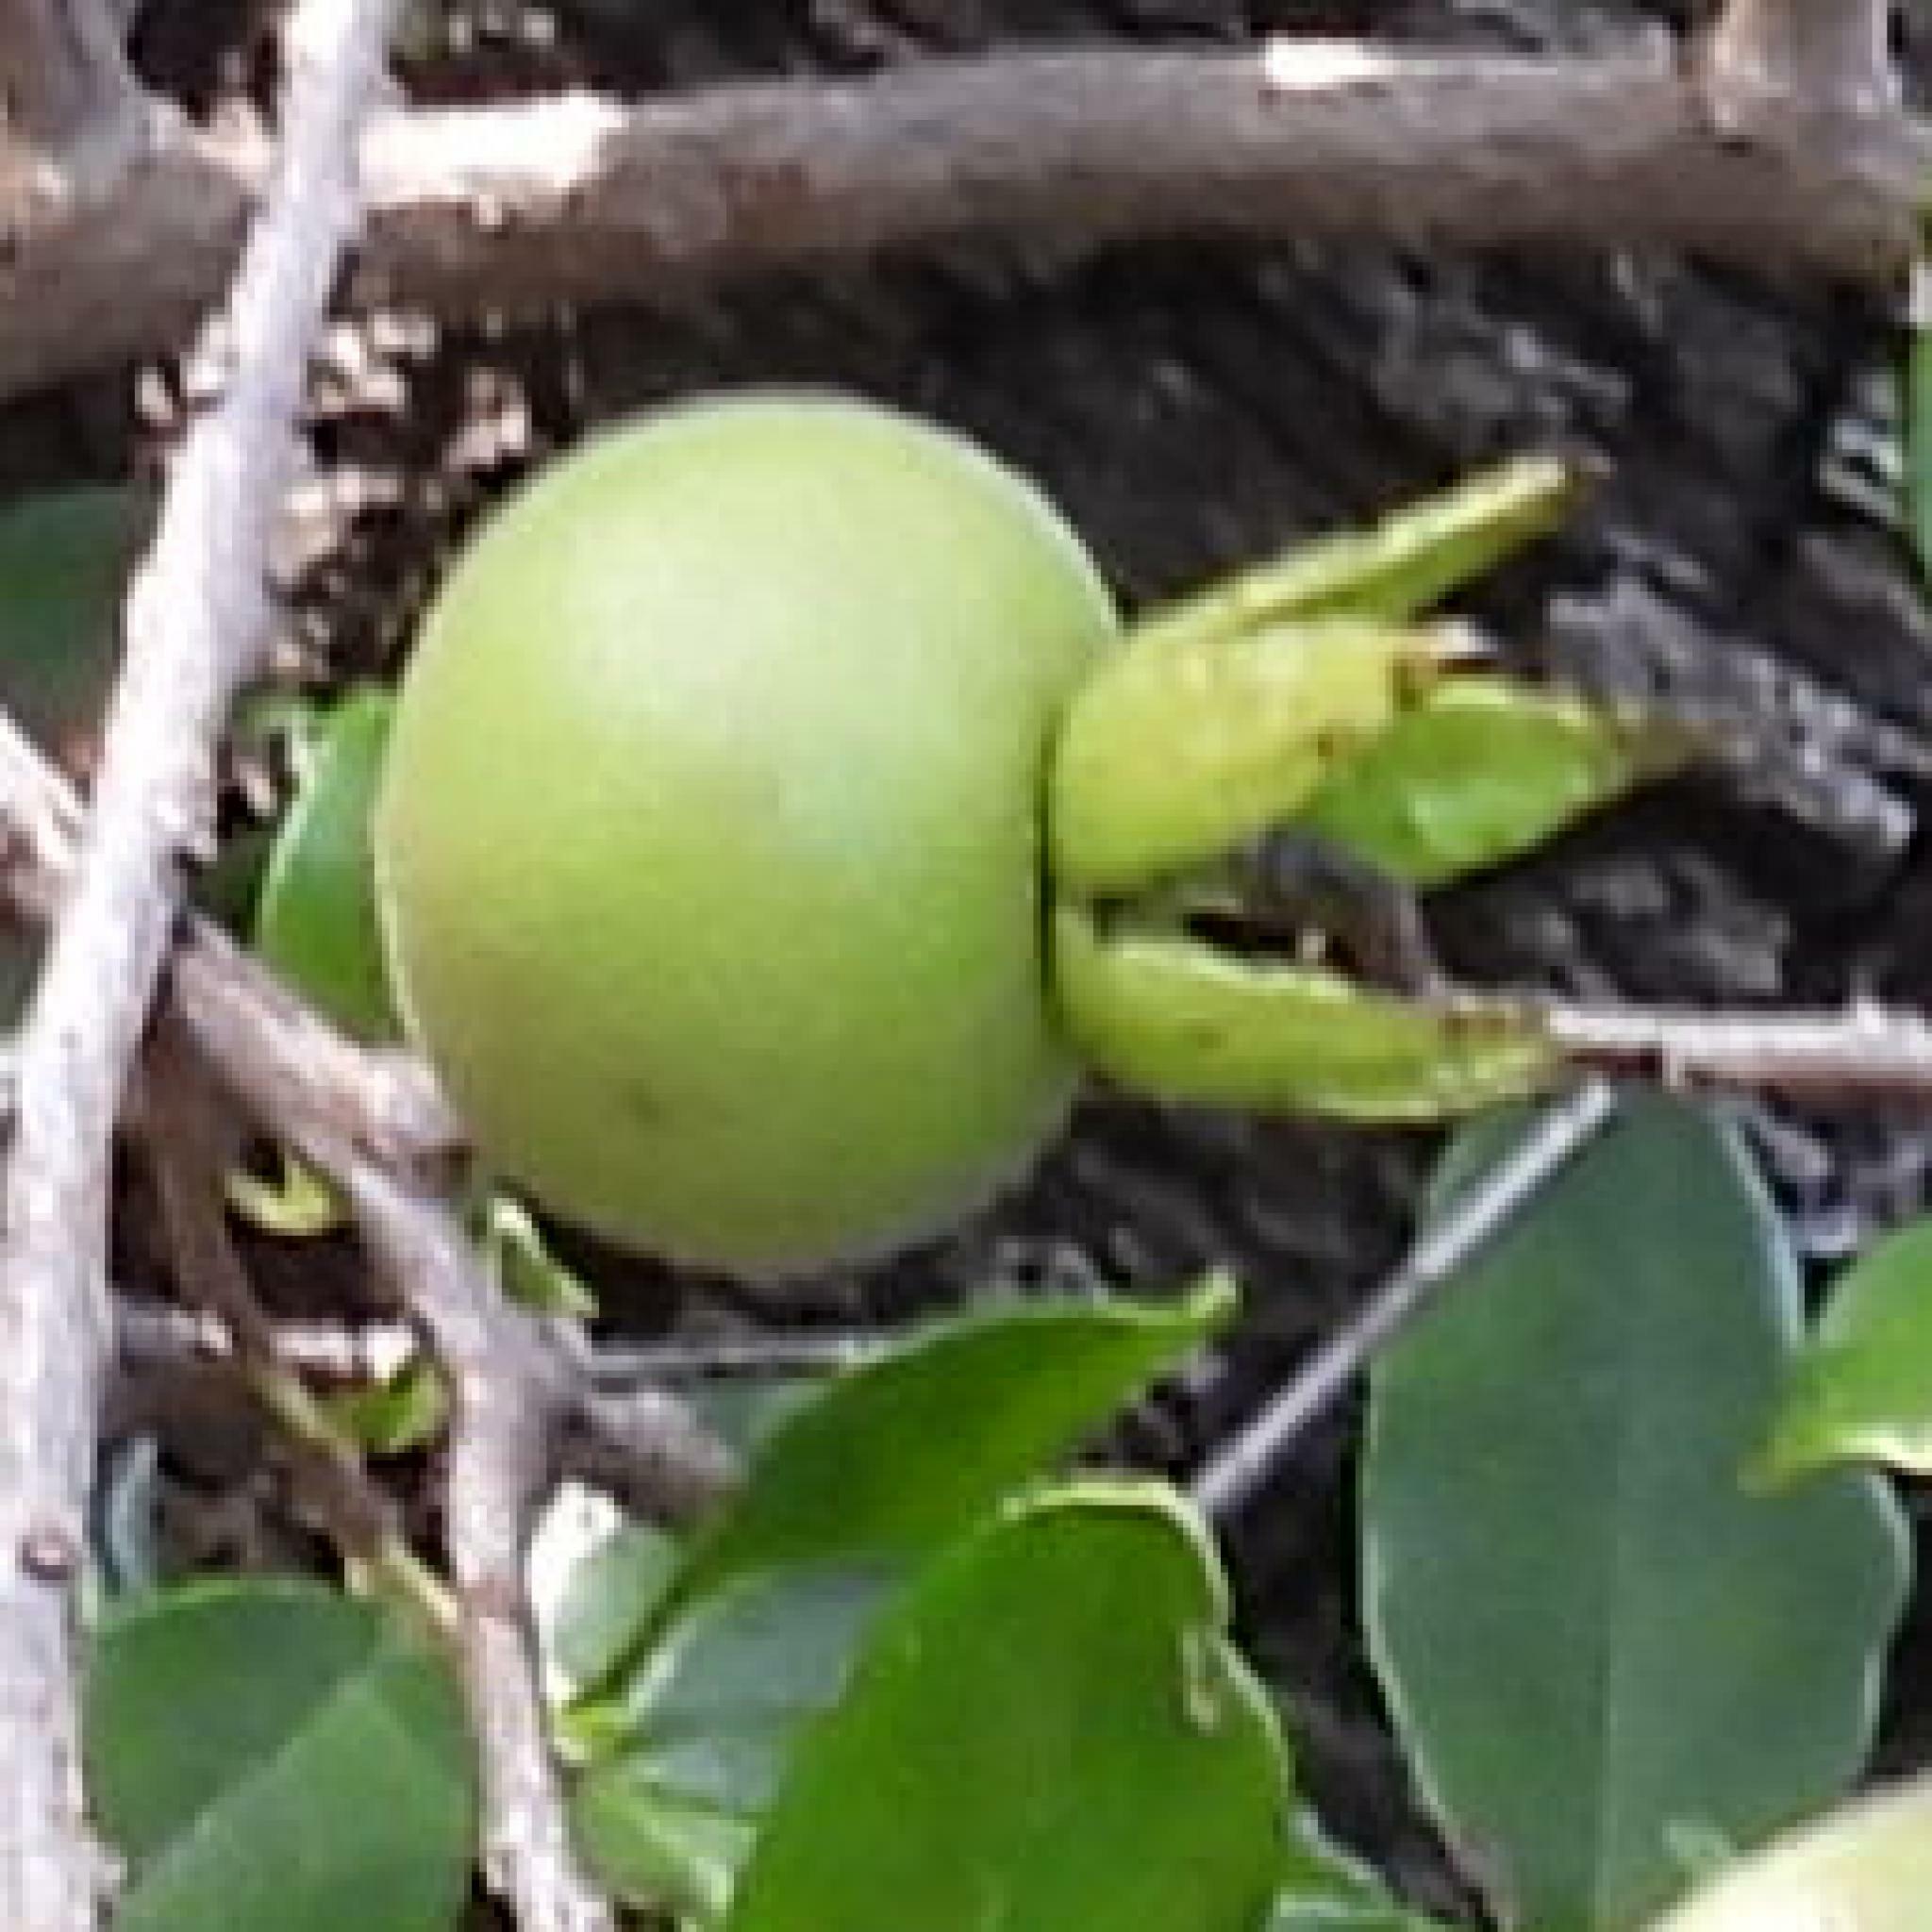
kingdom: Plantae
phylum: Tracheophyta
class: Magnoliopsida
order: Ericales
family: Ebenaceae
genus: Diospyros
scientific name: Diospyros simii
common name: Climbing star-apple
